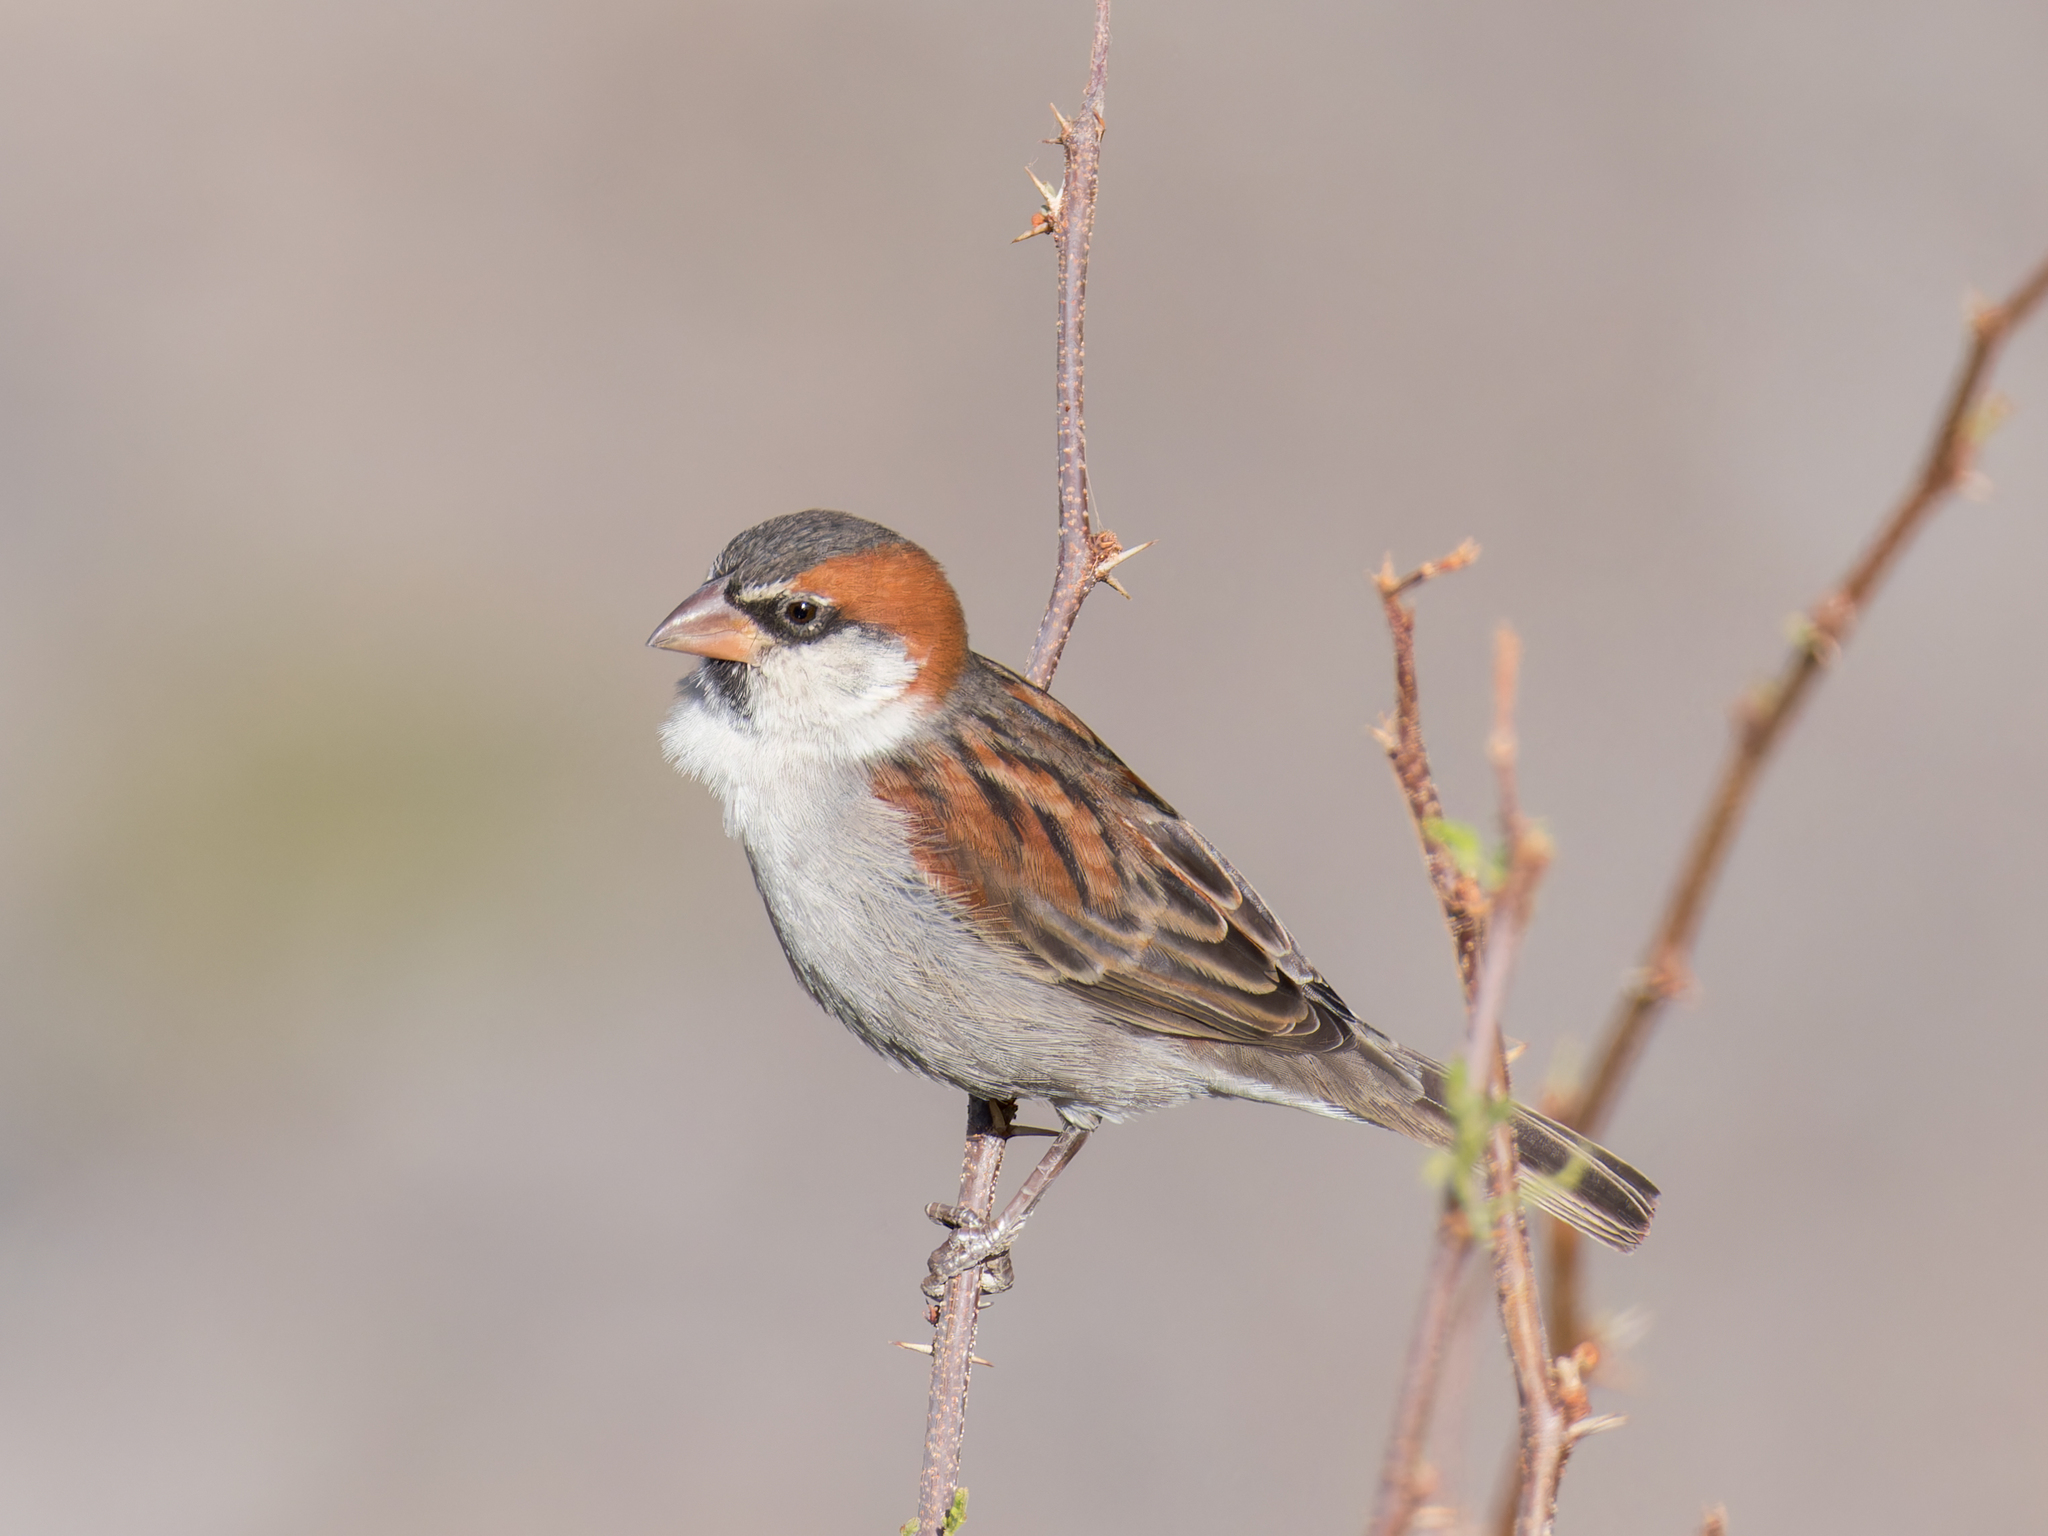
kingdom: Animalia
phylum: Chordata
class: Aves
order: Passeriformes
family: Passeridae
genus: Passer
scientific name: Passer iagoensis
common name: Iago sparrow
